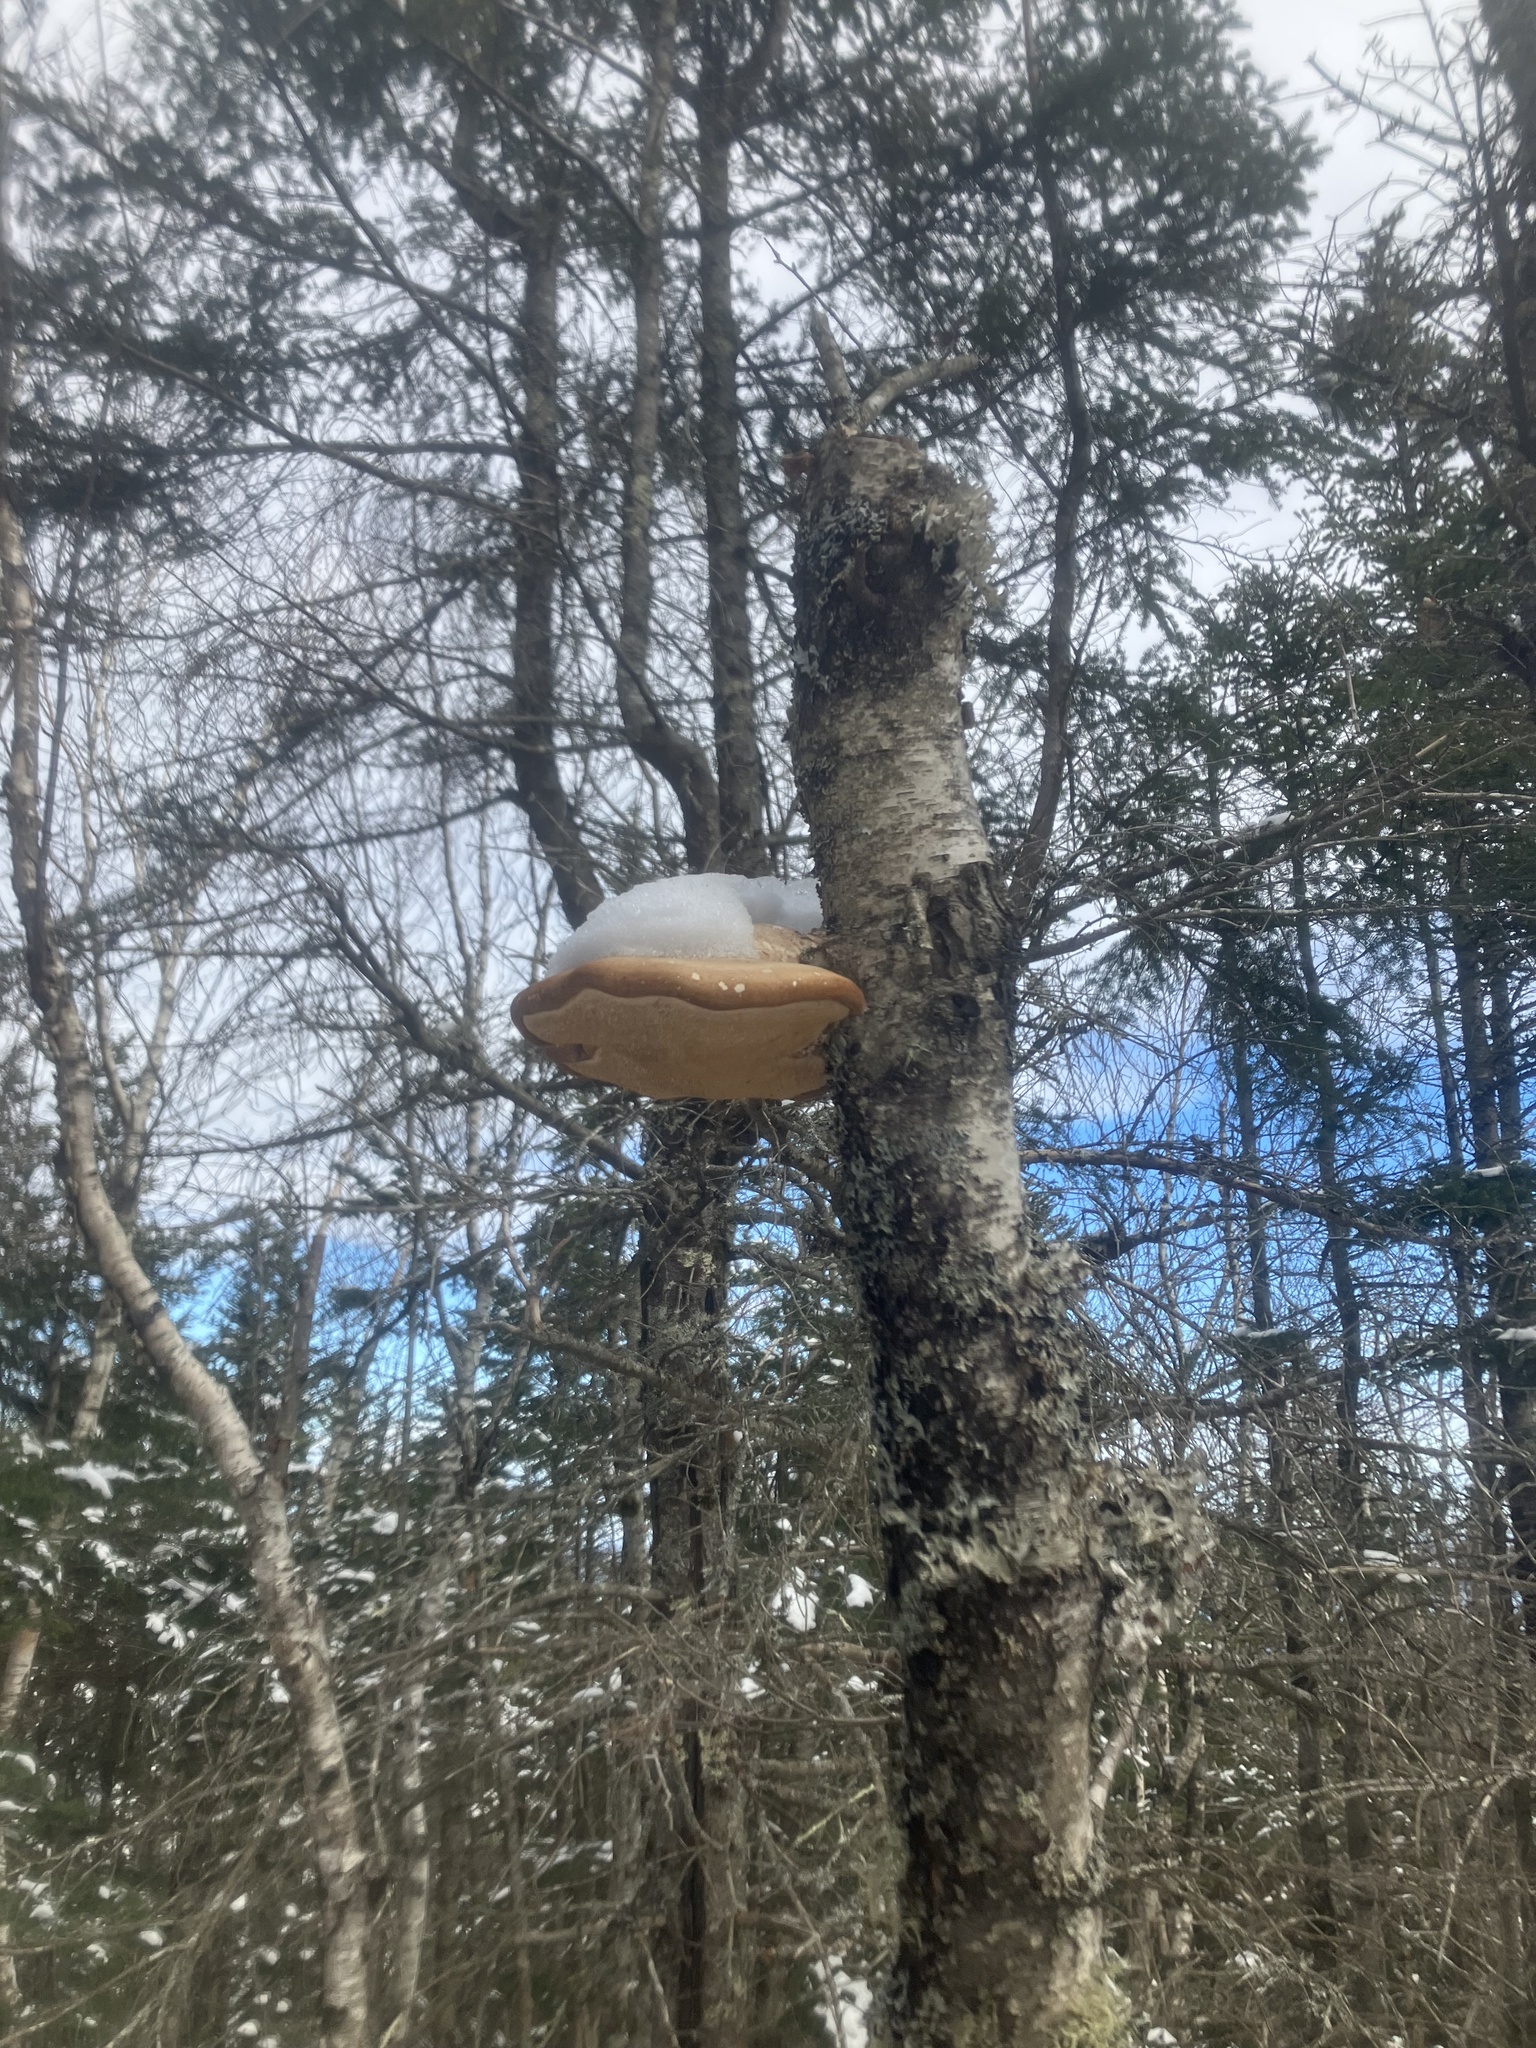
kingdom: Fungi
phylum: Basidiomycota
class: Agaricomycetes
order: Polyporales
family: Fomitopsidaceae
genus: Fomitopsis
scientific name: Fomitopsis betulina
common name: Birch polypore
